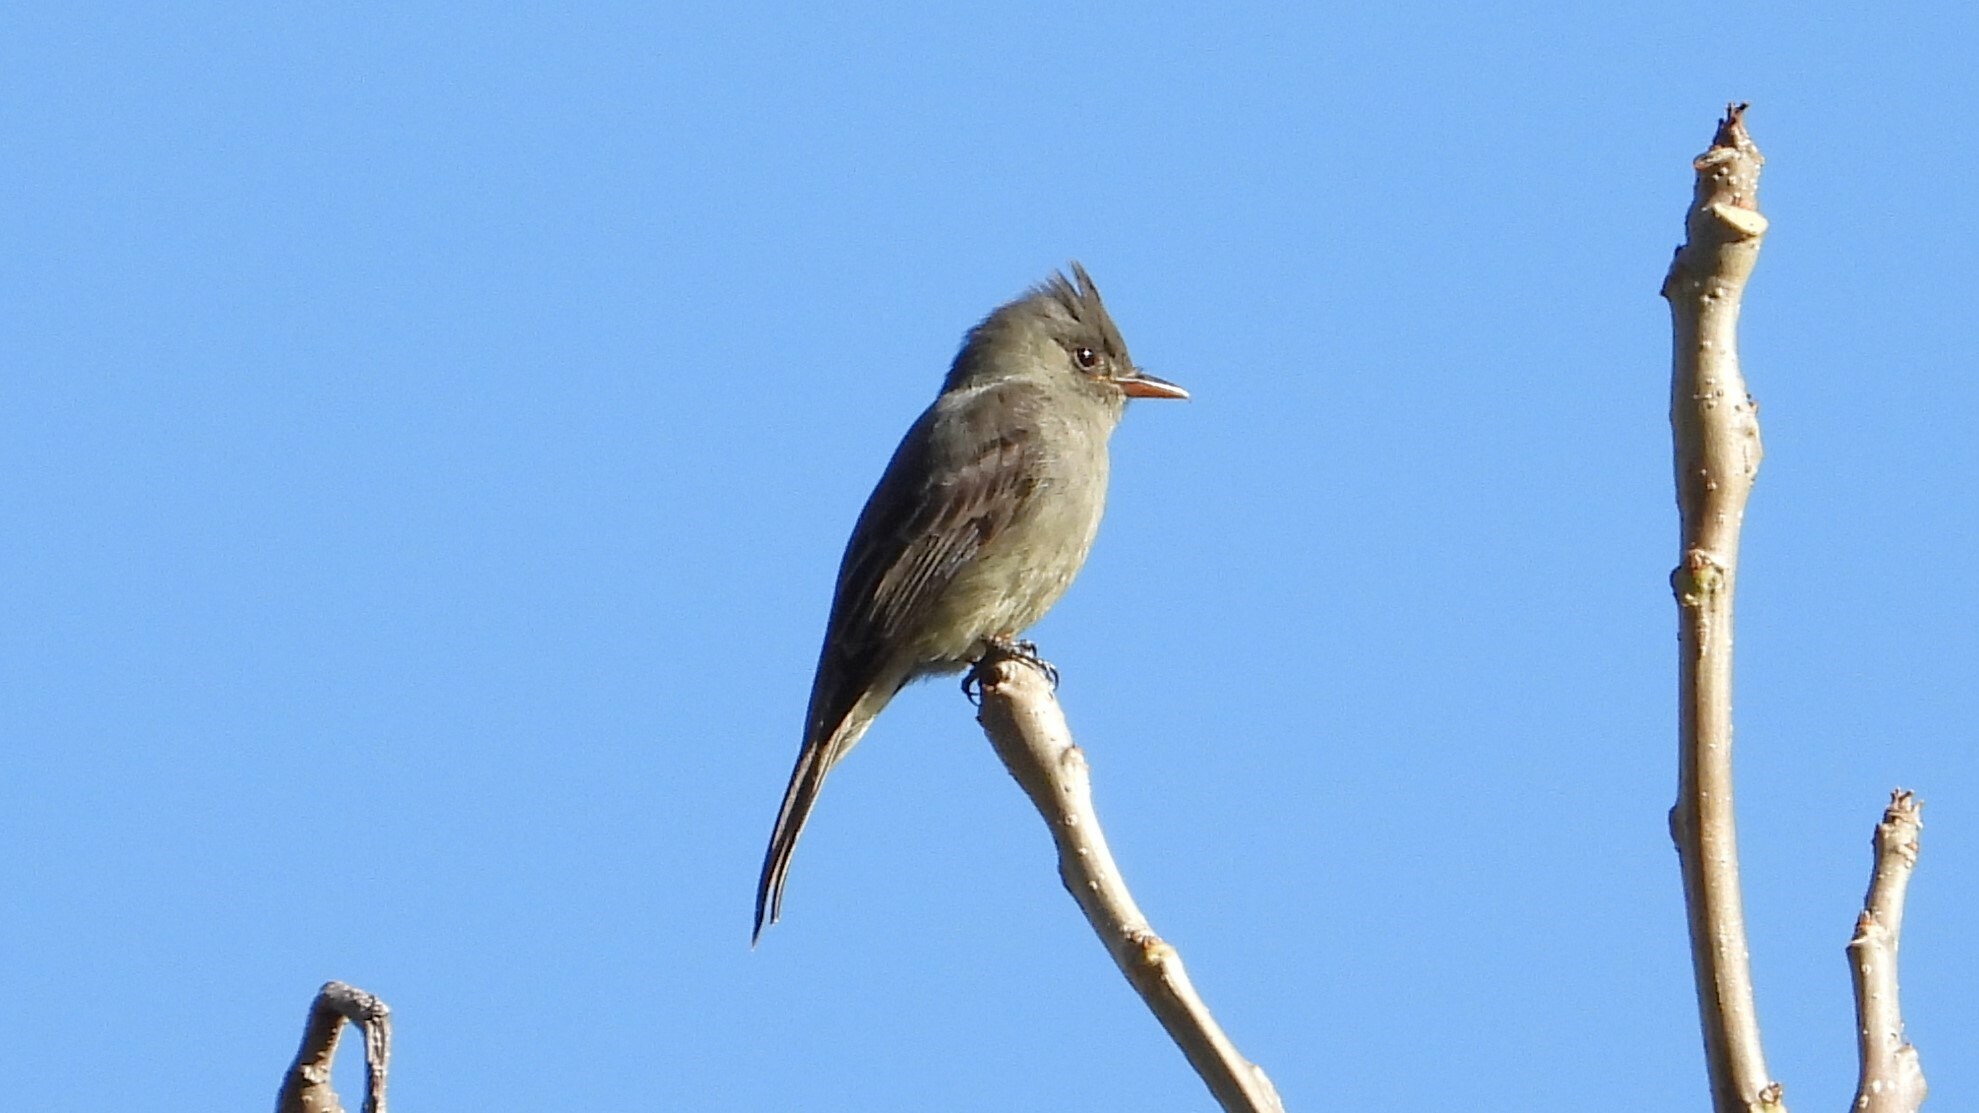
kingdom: Animalia
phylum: Chordata
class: Aves
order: Passeriformes
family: Tyrannidae
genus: Contopus
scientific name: Contopus lugubris
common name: Dark pewee
